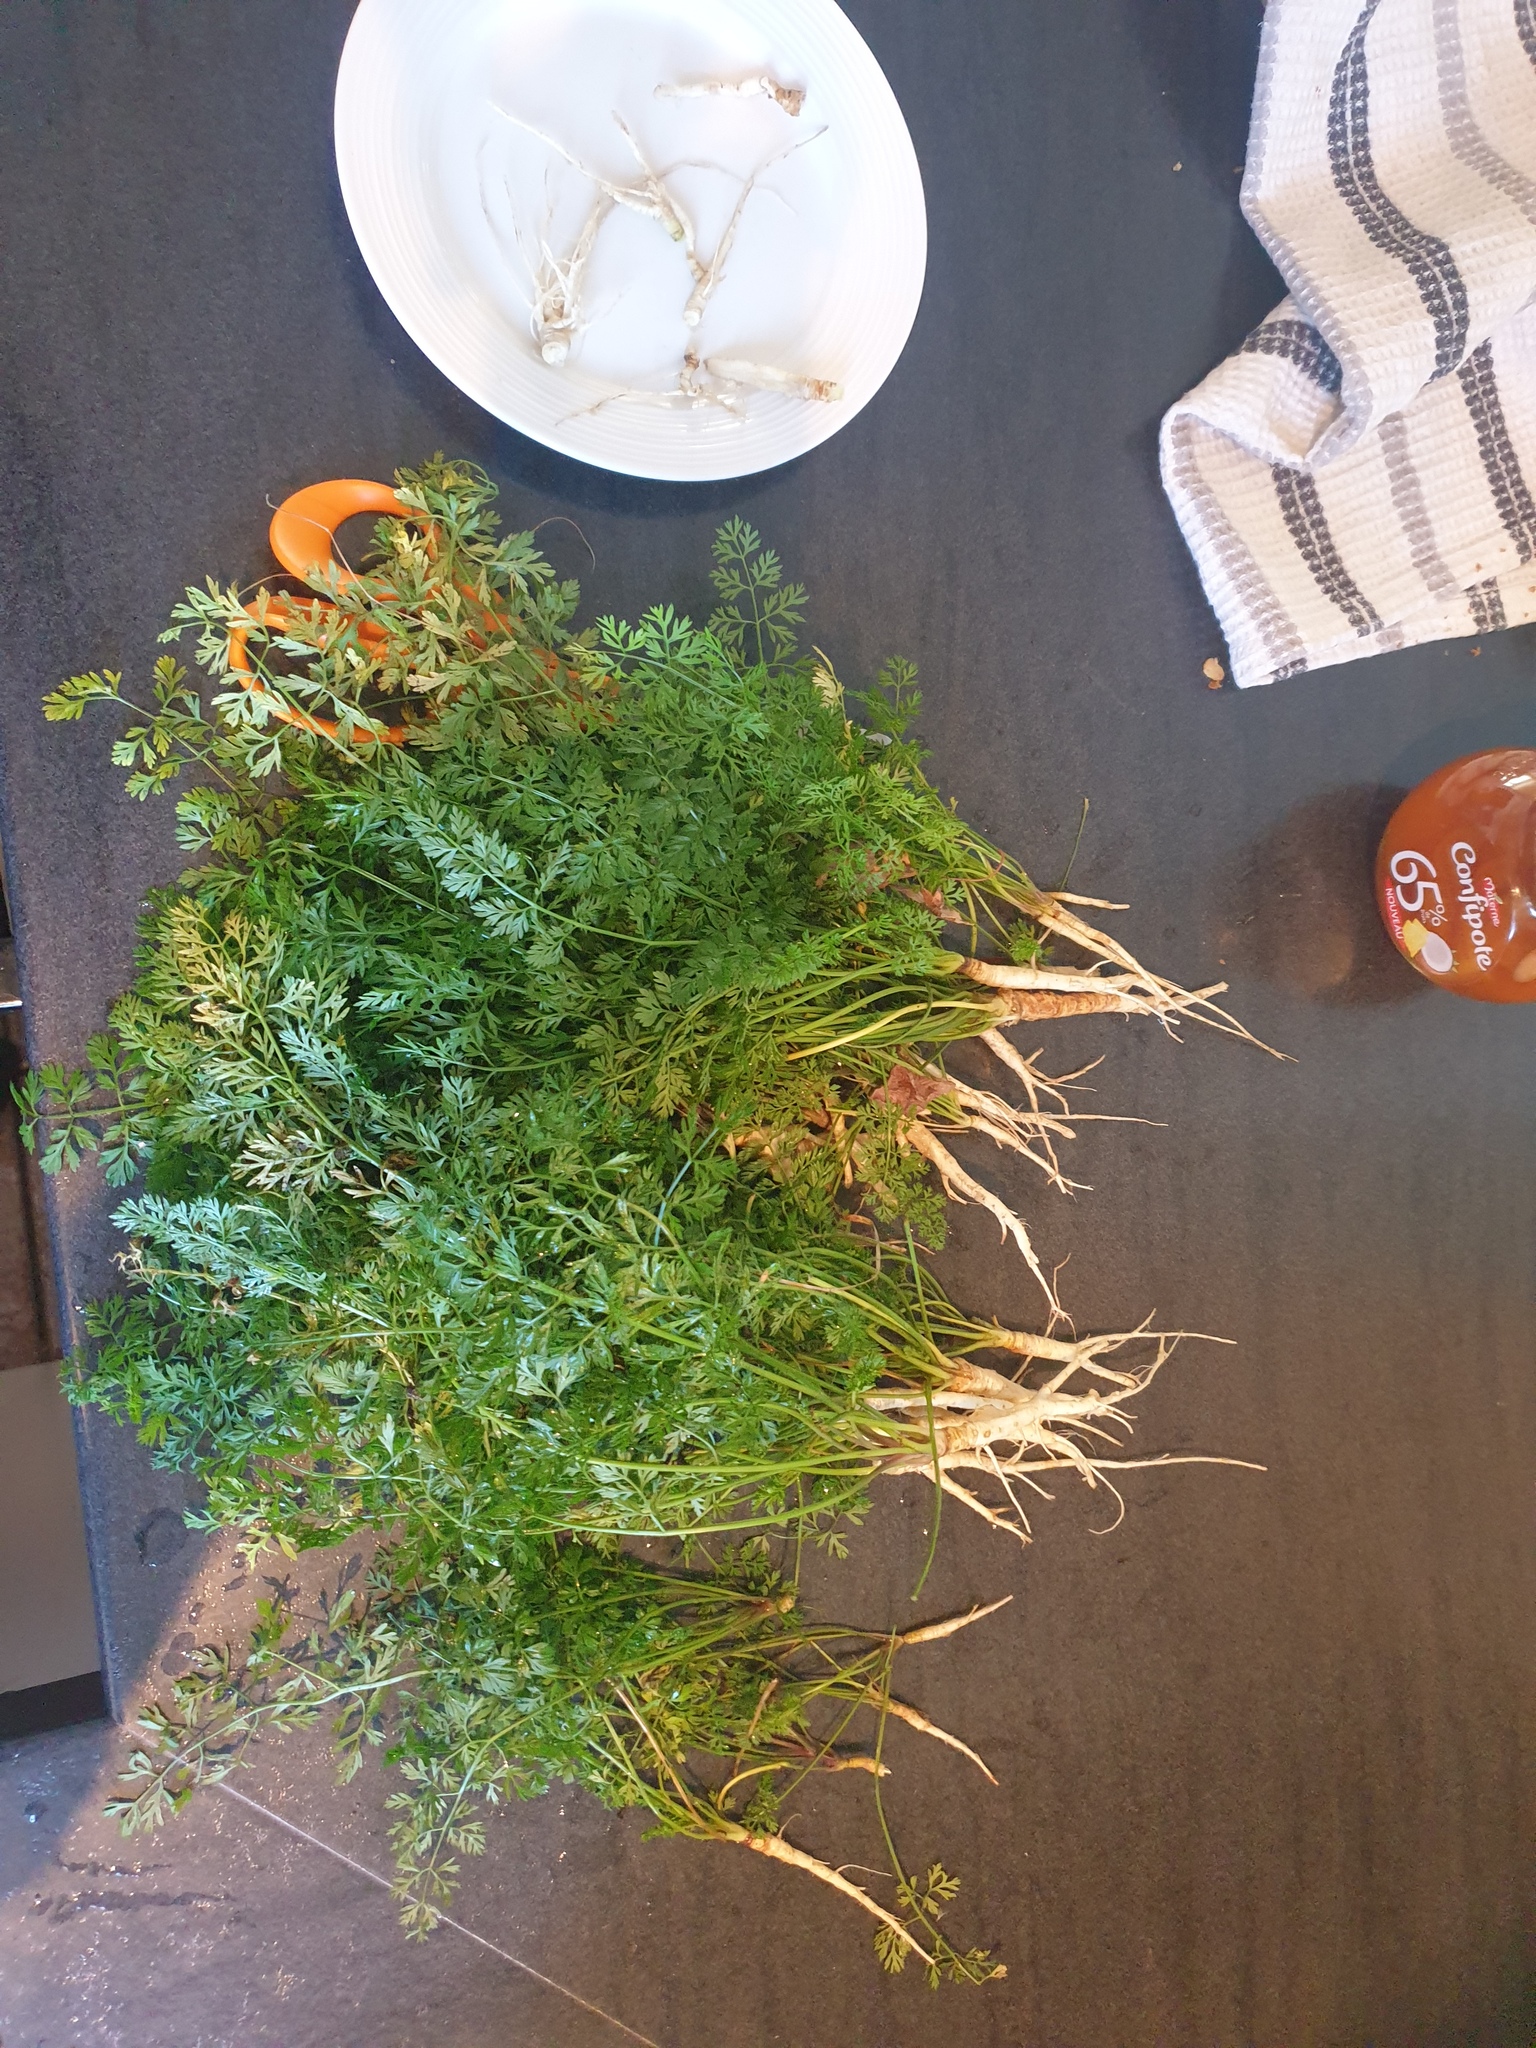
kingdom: Plantae
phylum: Tracheophyta
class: Magnoliopsida
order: Apiales
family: Apiaceae
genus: Daucus
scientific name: Daucus carota
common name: Wild carrot
